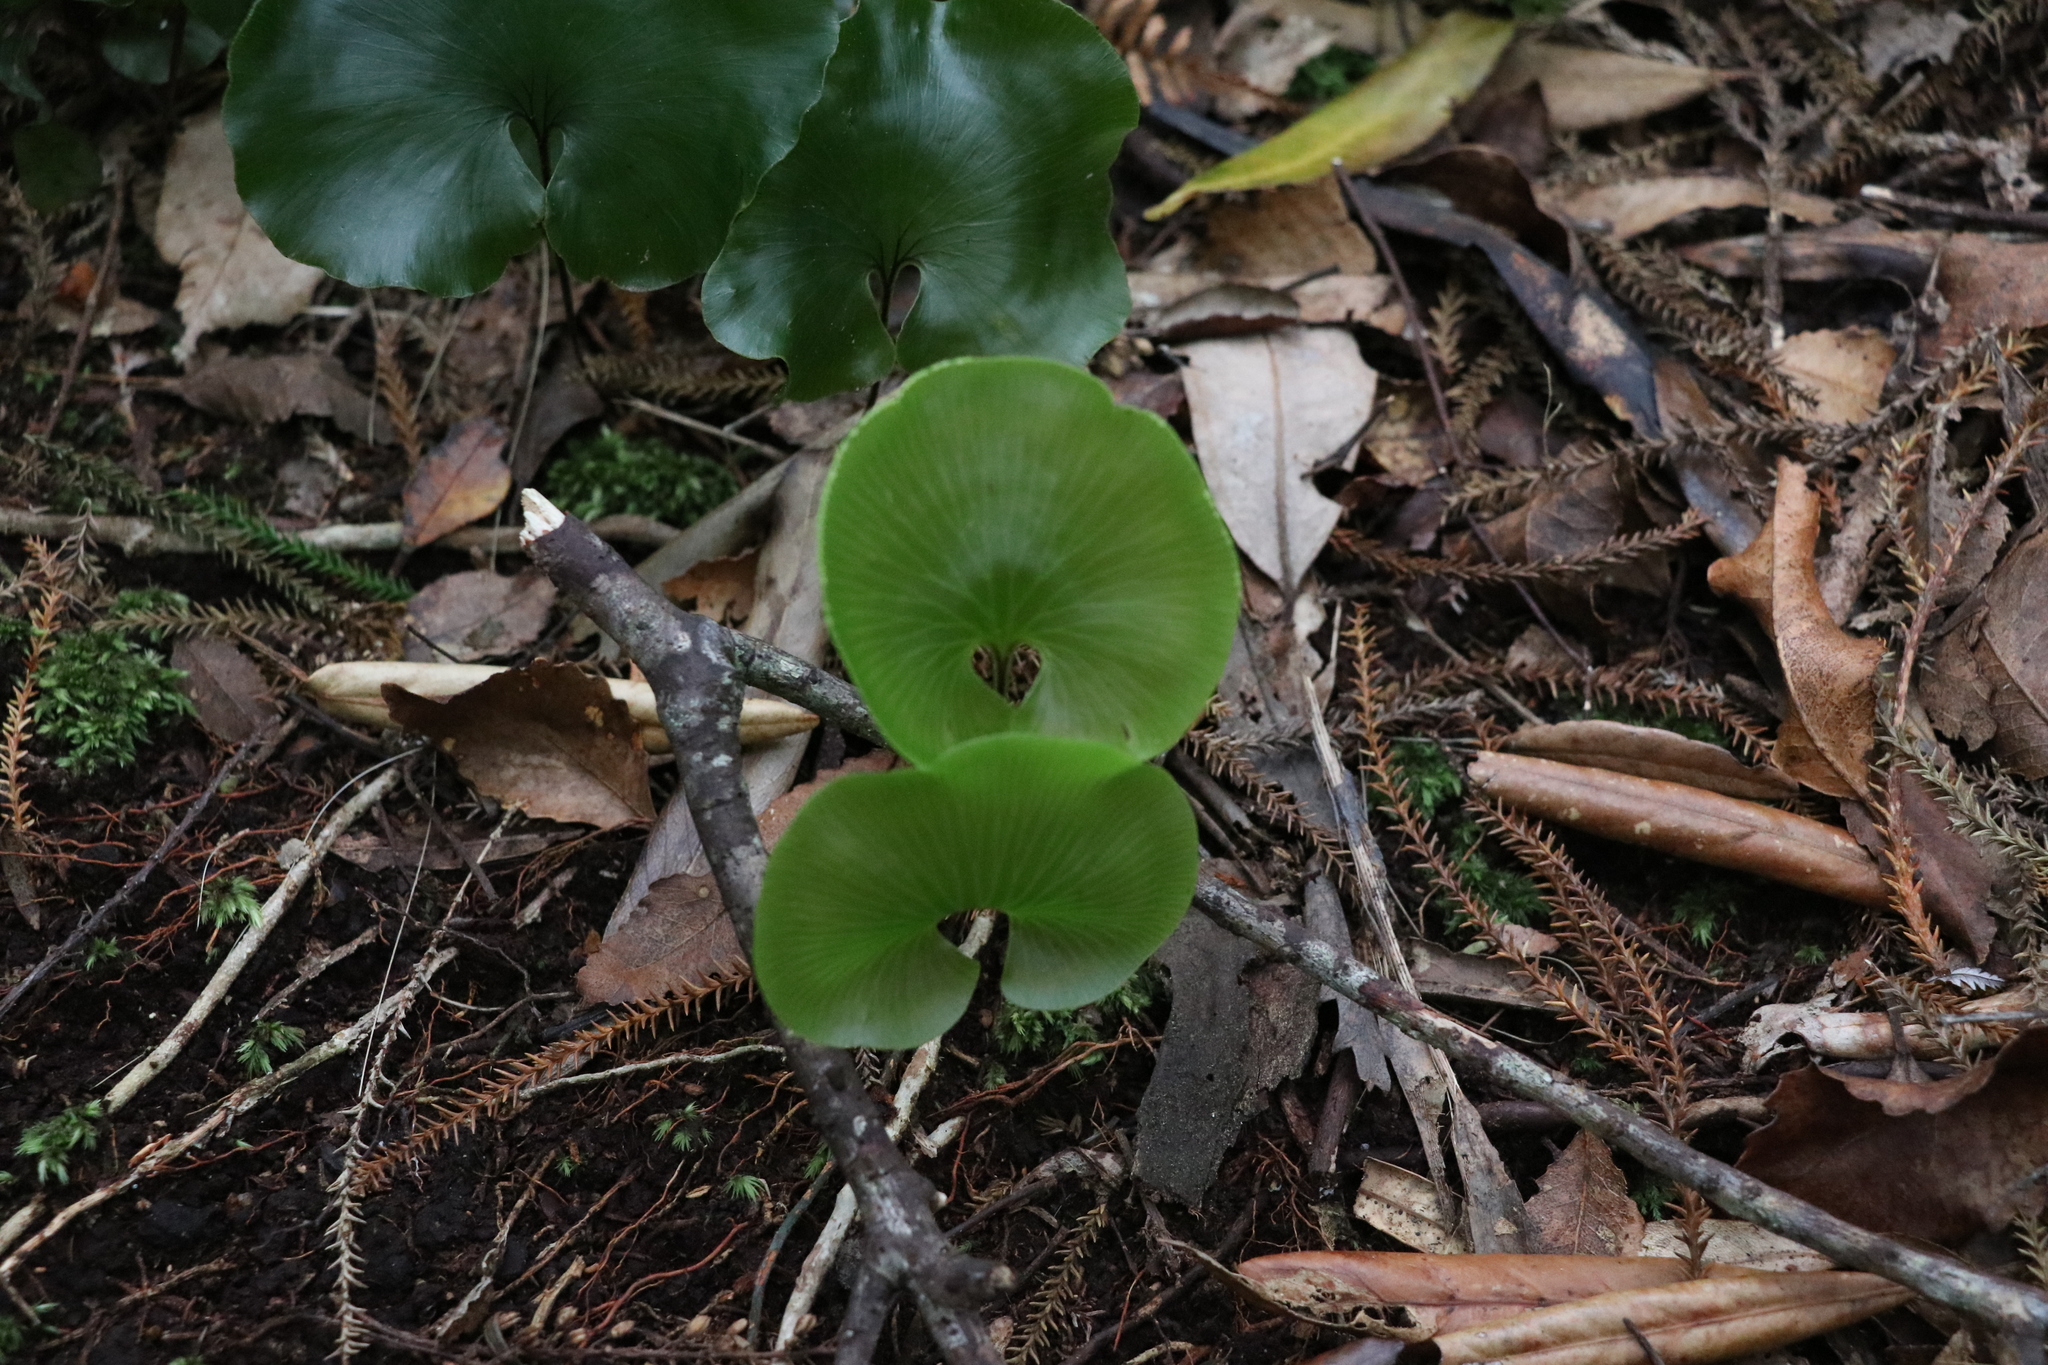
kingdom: Plantae
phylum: Tracheophyta
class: Polypodiopsida
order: Hymenophyllales
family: Hymenophyllaceae
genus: Hymenophyllum
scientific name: Hymenophyllum nephrophyllum
